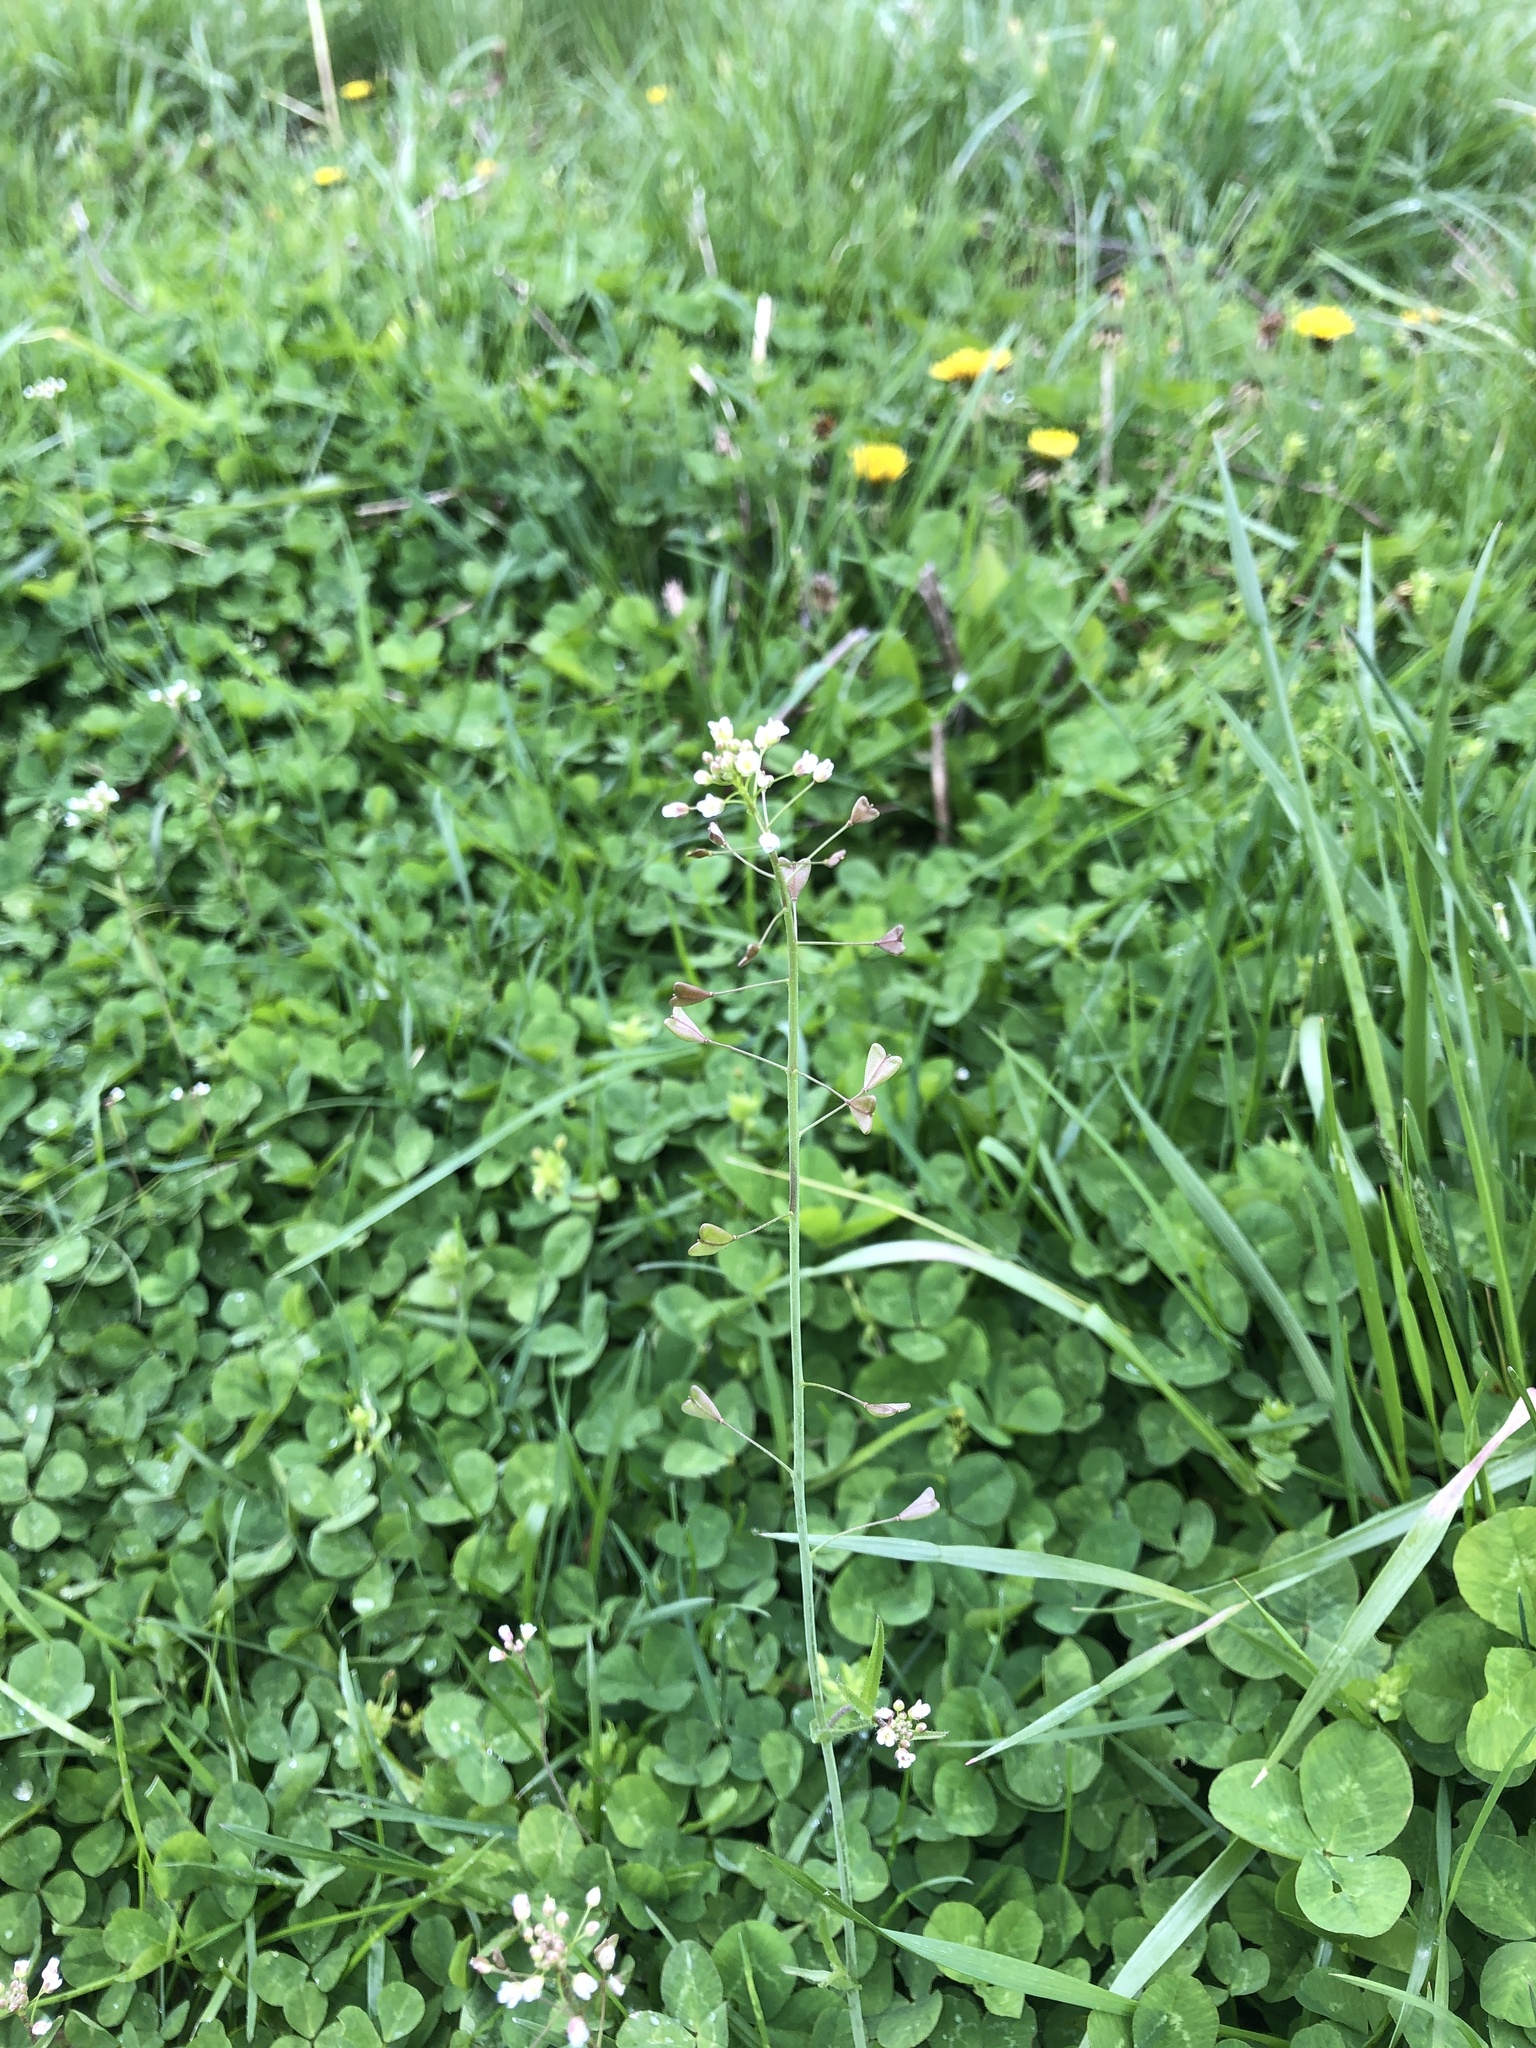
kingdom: Plantae
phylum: Tracheophyta
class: Magnoliopsida
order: Brassicales
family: Brassicaceae
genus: Capsella
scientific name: Capsella bursa-pastoris
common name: Shepherd's purse
